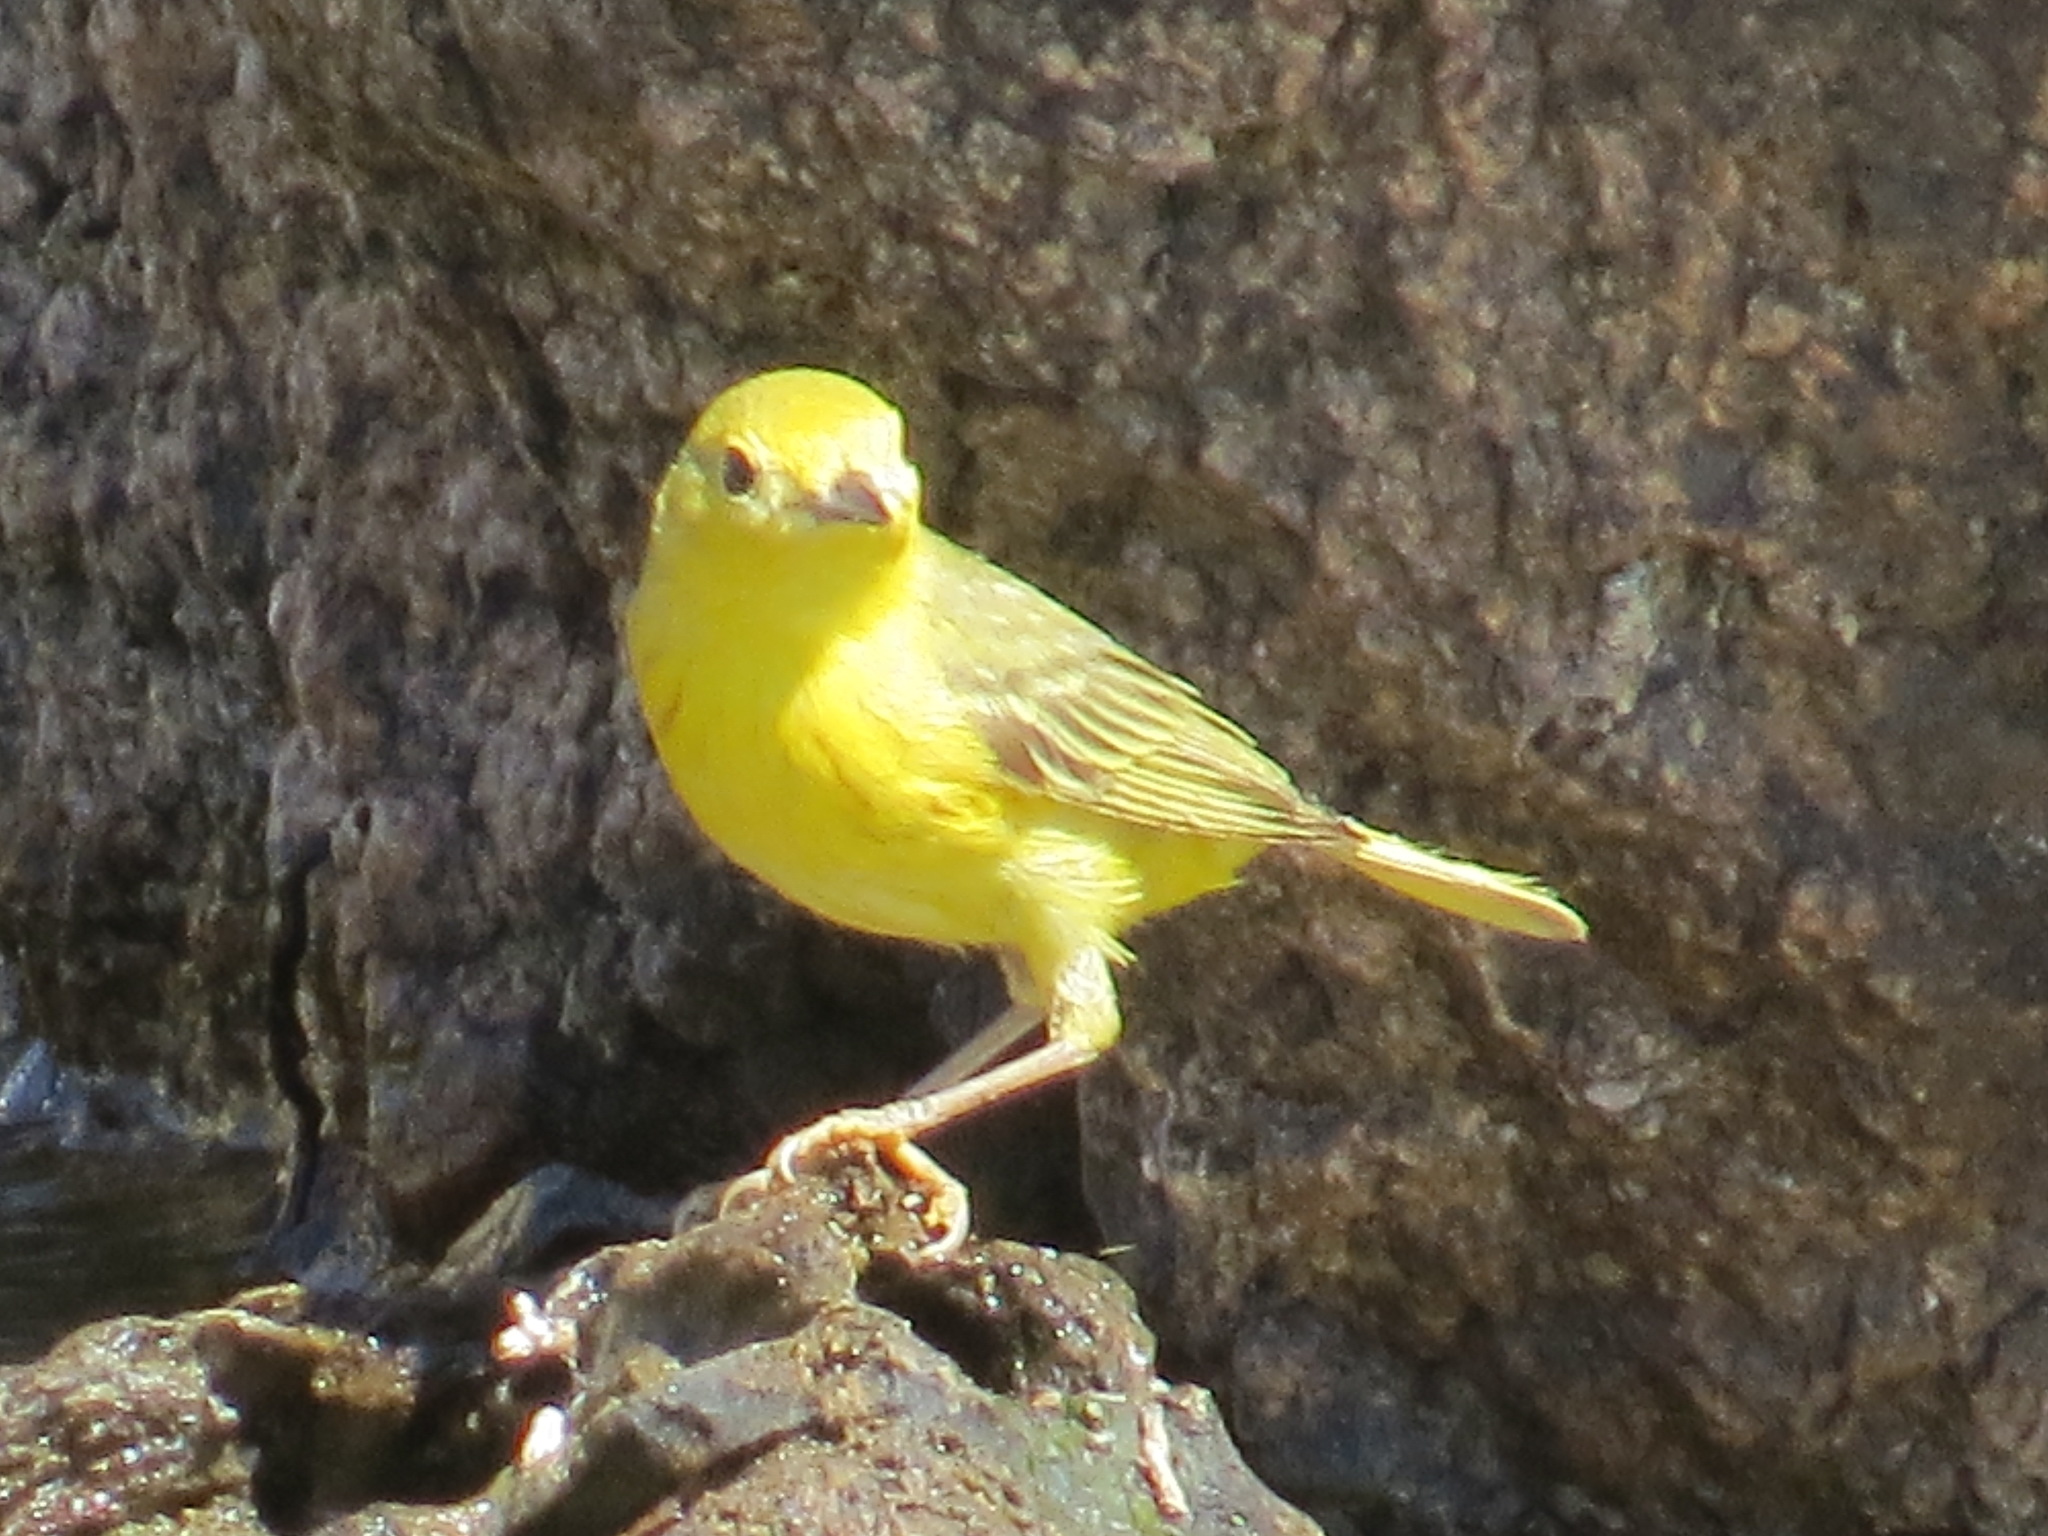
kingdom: Animalia
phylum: Chordata
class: Aves
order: Passeriformes
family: Parulidae
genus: Setophaga
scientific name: Setophaga petechia
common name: Yellow warbler
